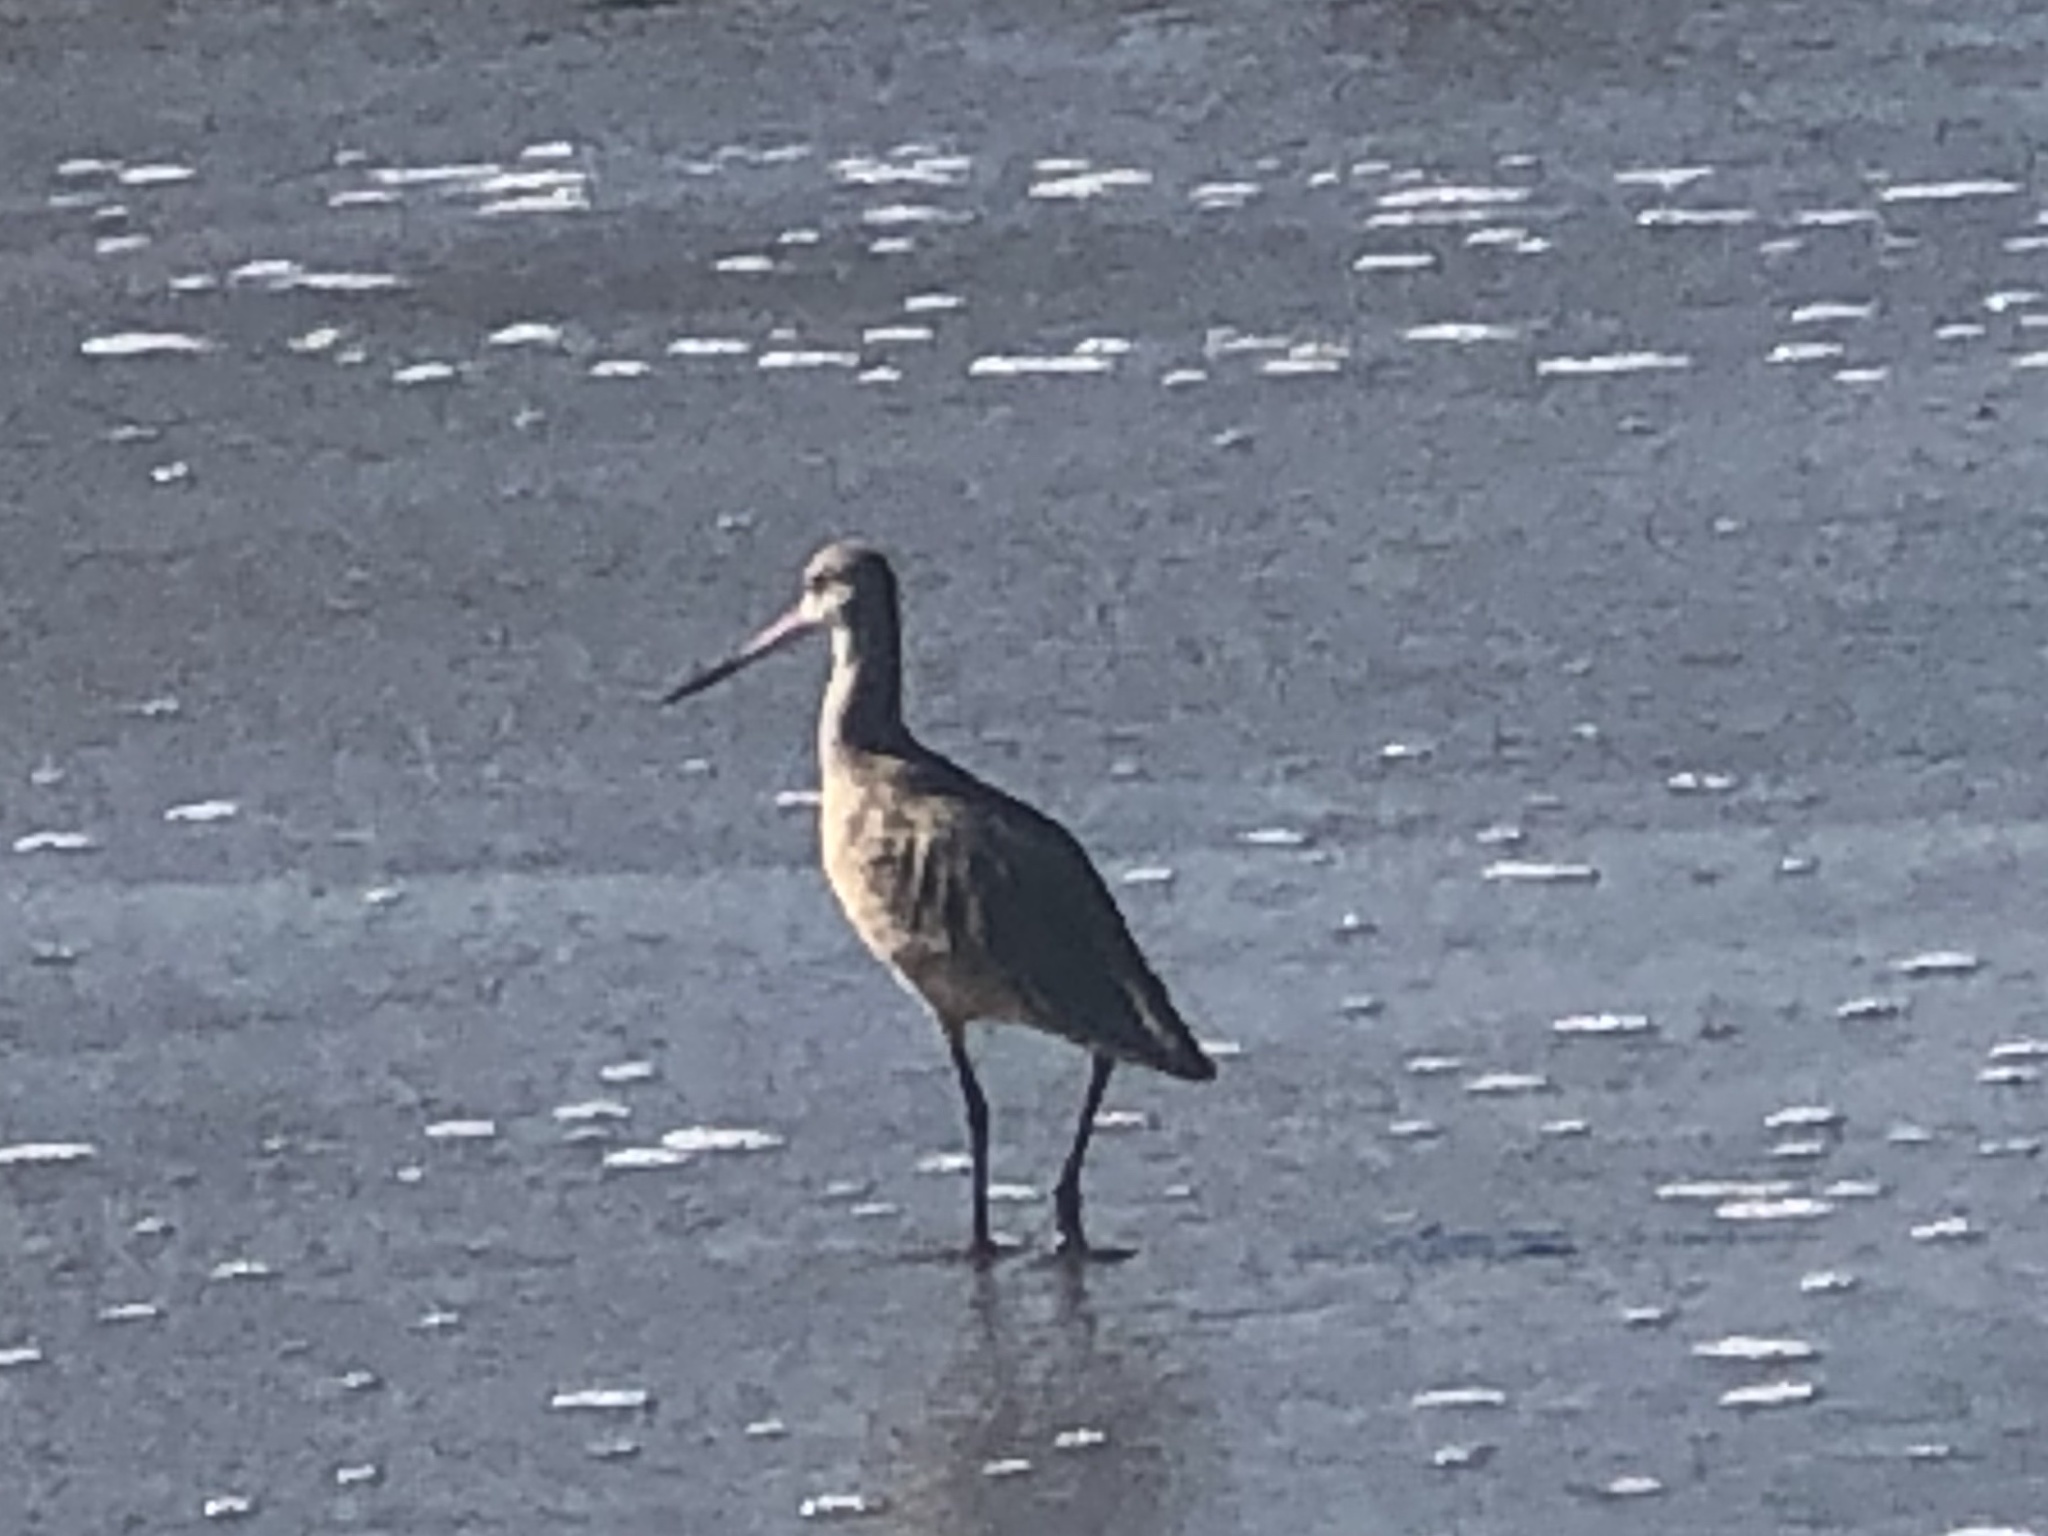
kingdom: Animalia
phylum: Chordata
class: Aves
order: Charadriiformes
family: Scolopacidae
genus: Limosa
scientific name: Limosa fedoa
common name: Marbled godwit
